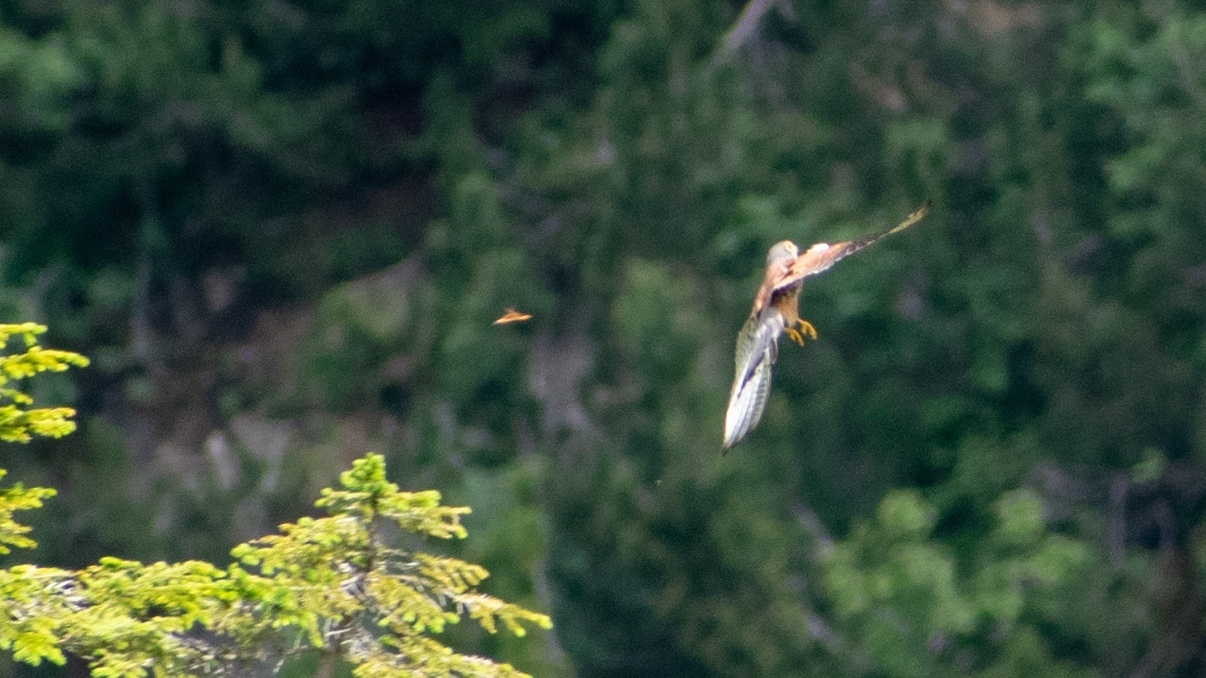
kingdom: Animalia
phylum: Chordata
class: Aves
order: Falconiformes
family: Falconidae
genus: Falco
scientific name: Falco tinnunculus
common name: Common kestrel
